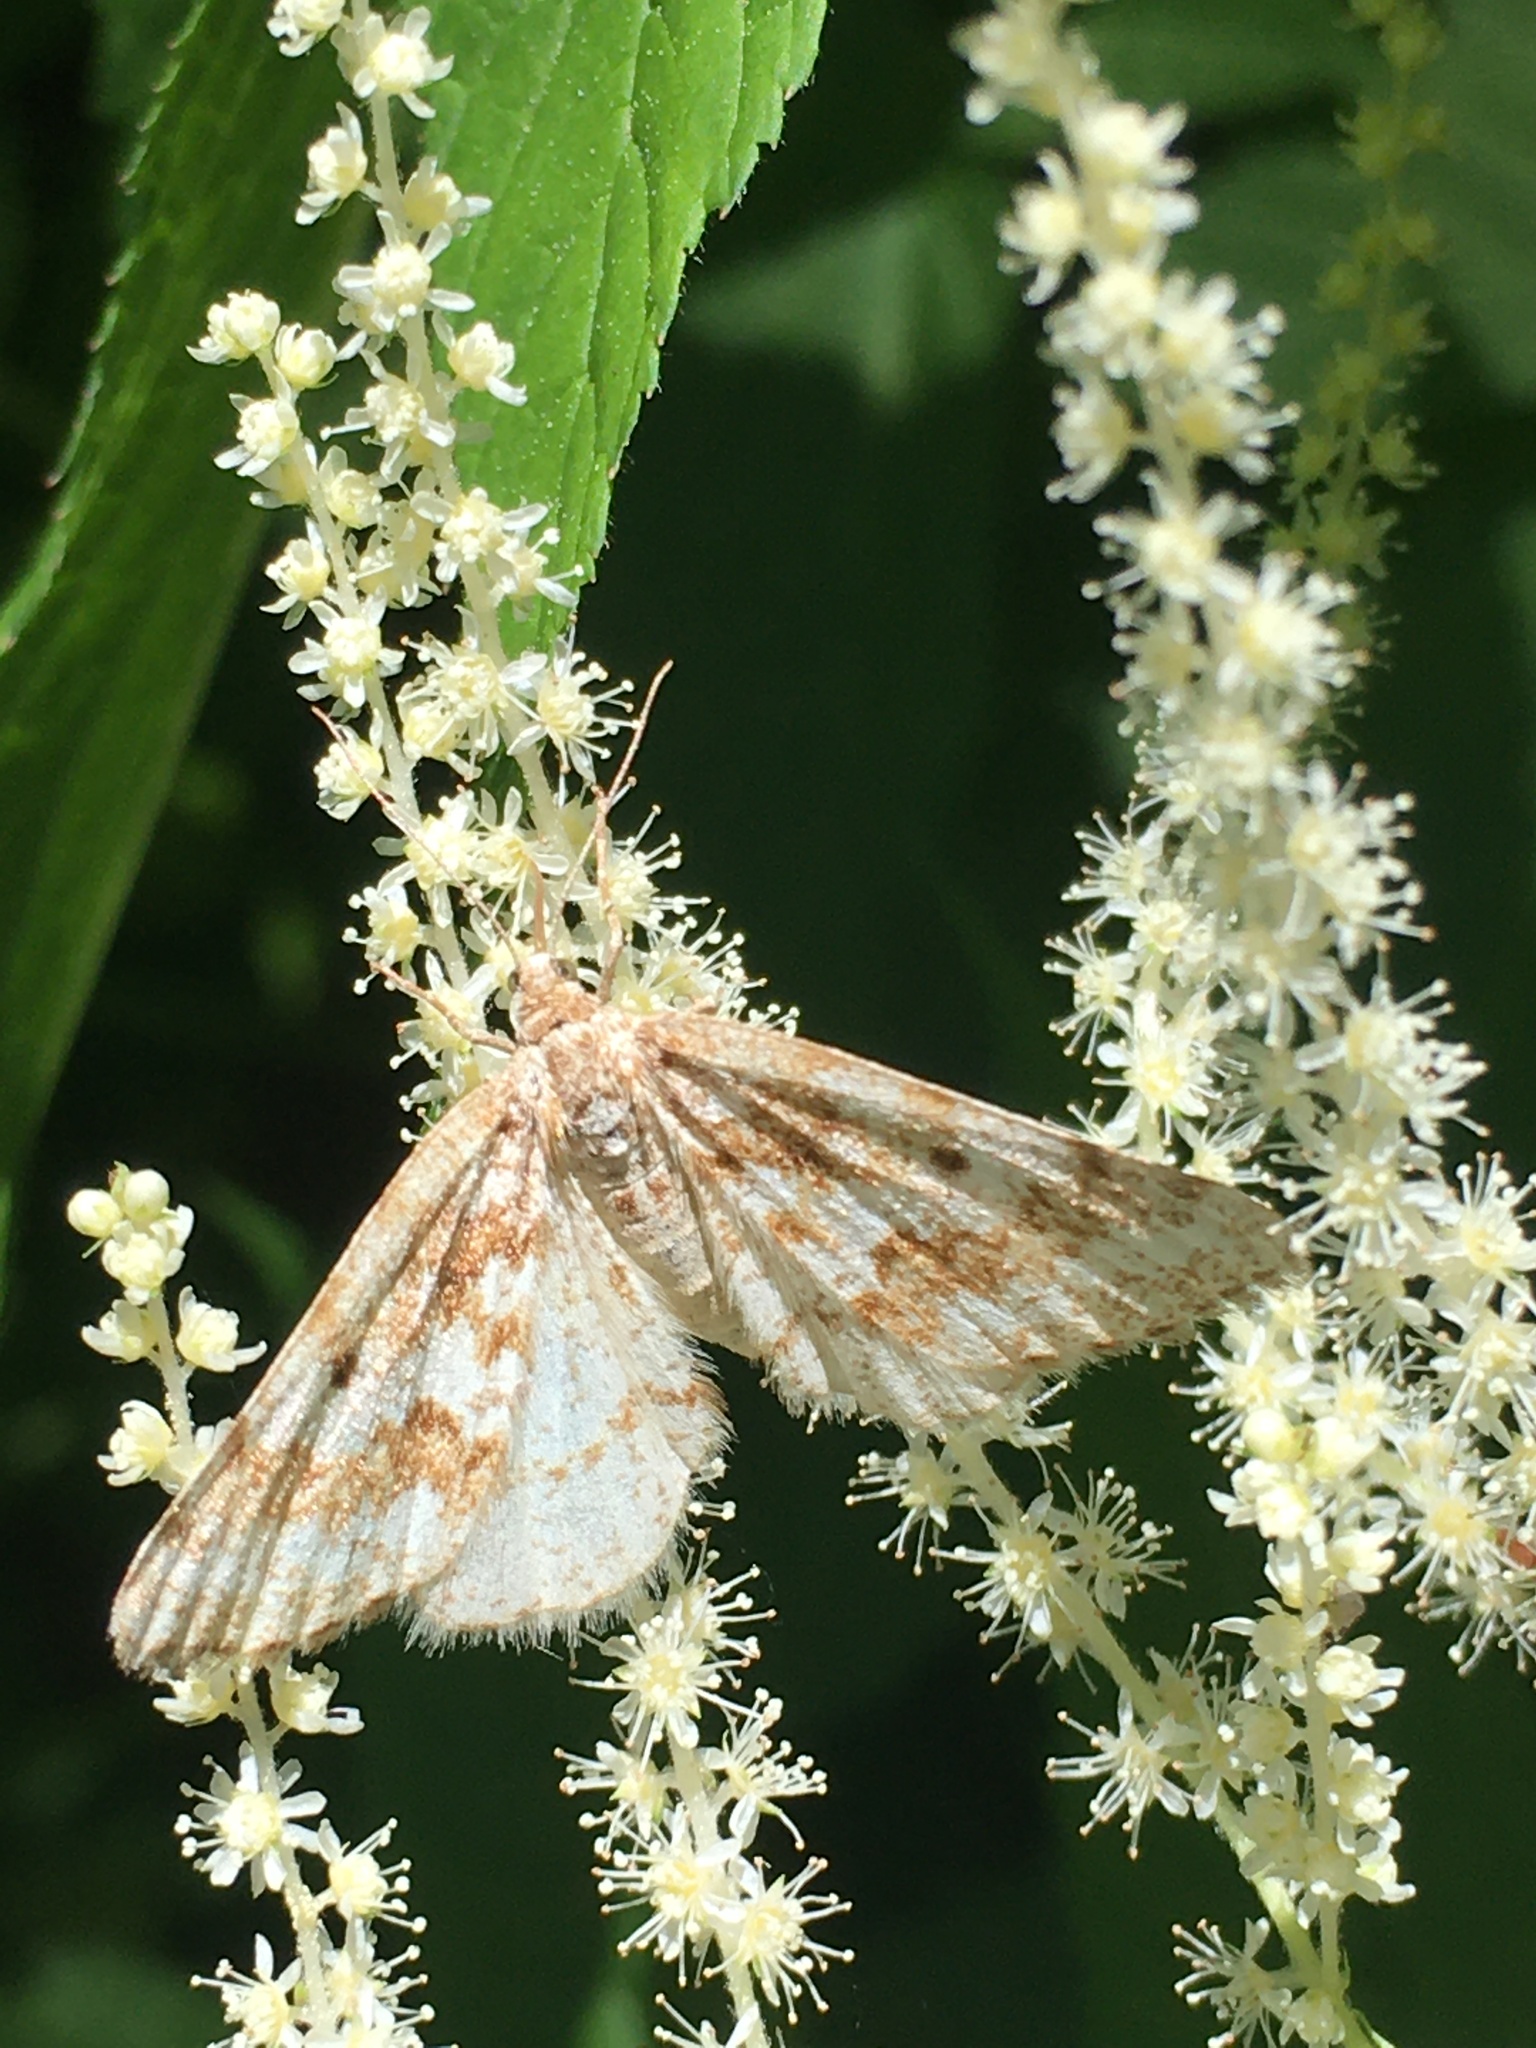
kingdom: Animalia
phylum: Arthropoda
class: Insecta
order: Lepidoptera
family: Geometridae
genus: Eufidonia
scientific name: Eufidonia notataria
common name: Powder moth
